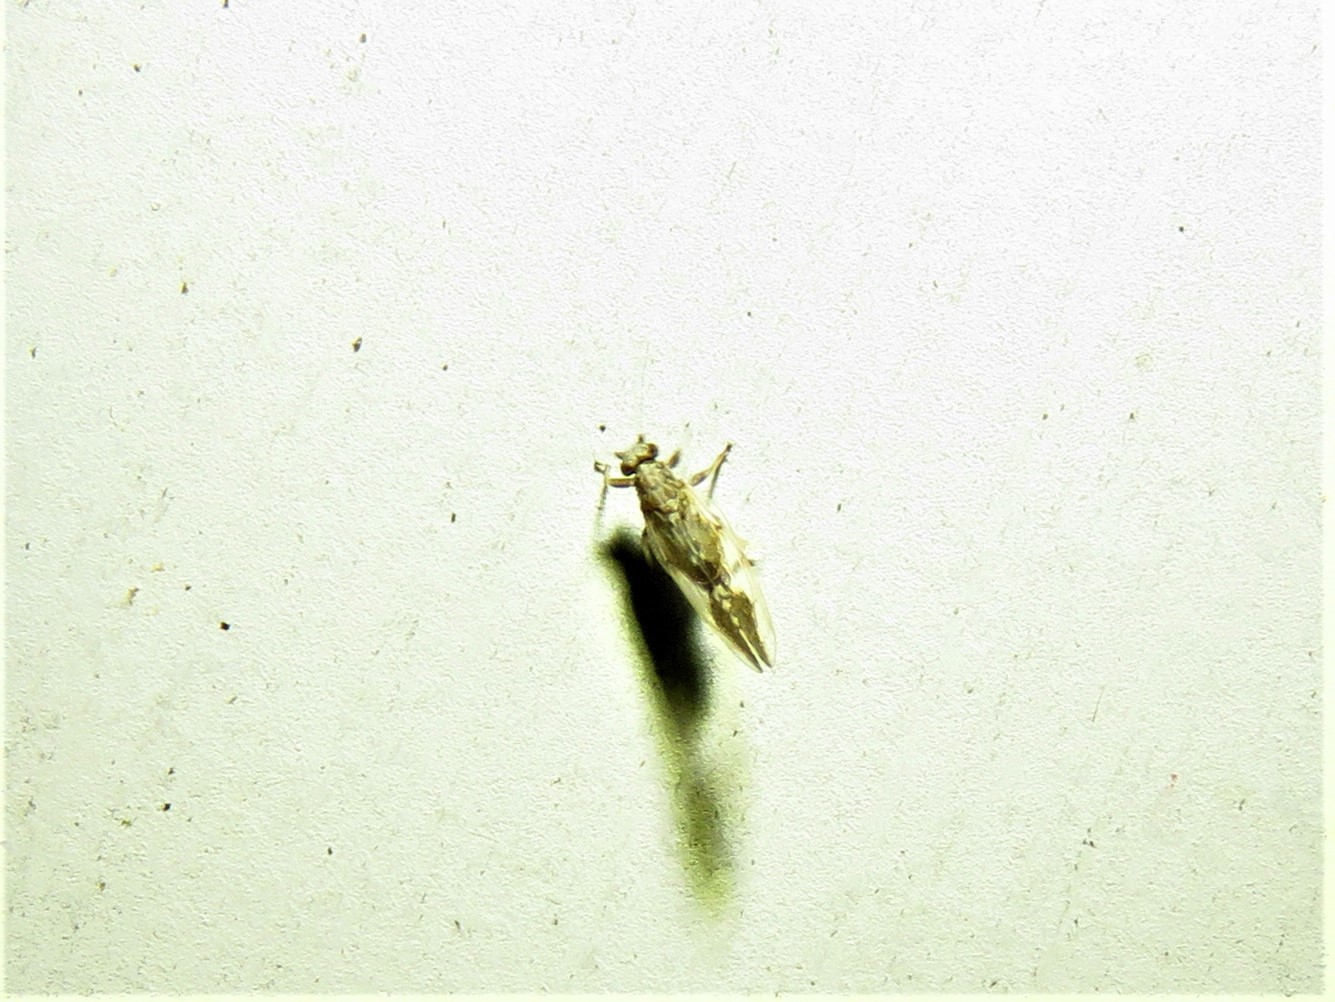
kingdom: Animalia
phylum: Arthropoda
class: Insecta
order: Hemiptera
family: Triozidae
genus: Leuronota
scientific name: Leuronota maculata
